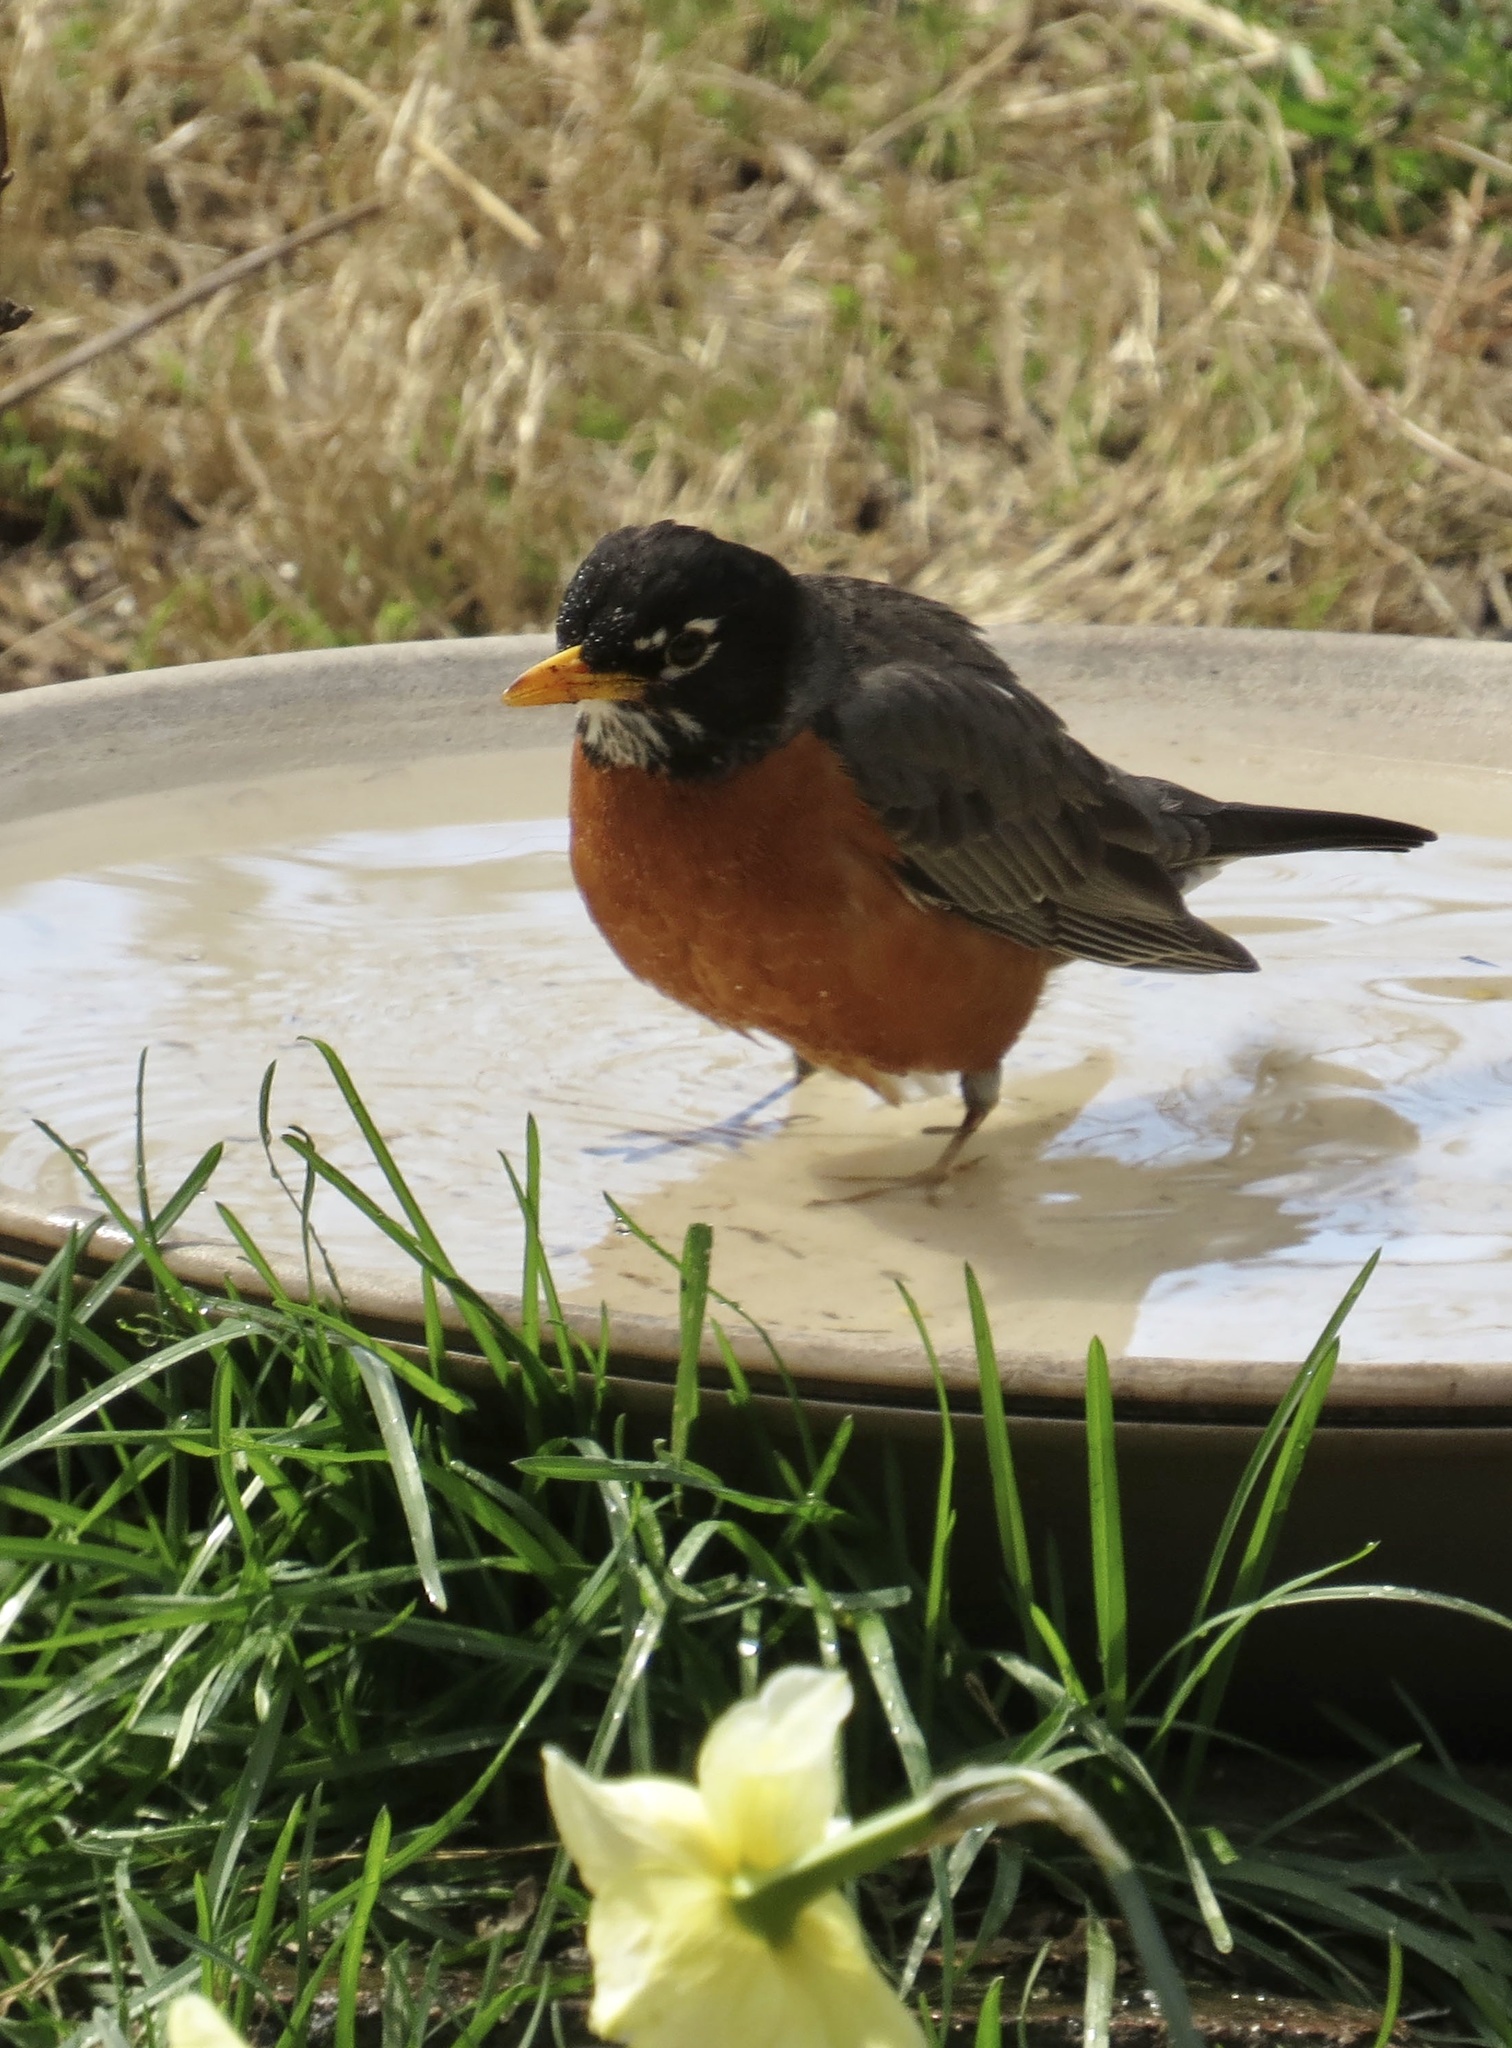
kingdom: Animalia
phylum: Chordata
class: Aves
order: Passeriformes
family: Turdidae
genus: Turdus
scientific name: Turdus migratorius
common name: American robin
